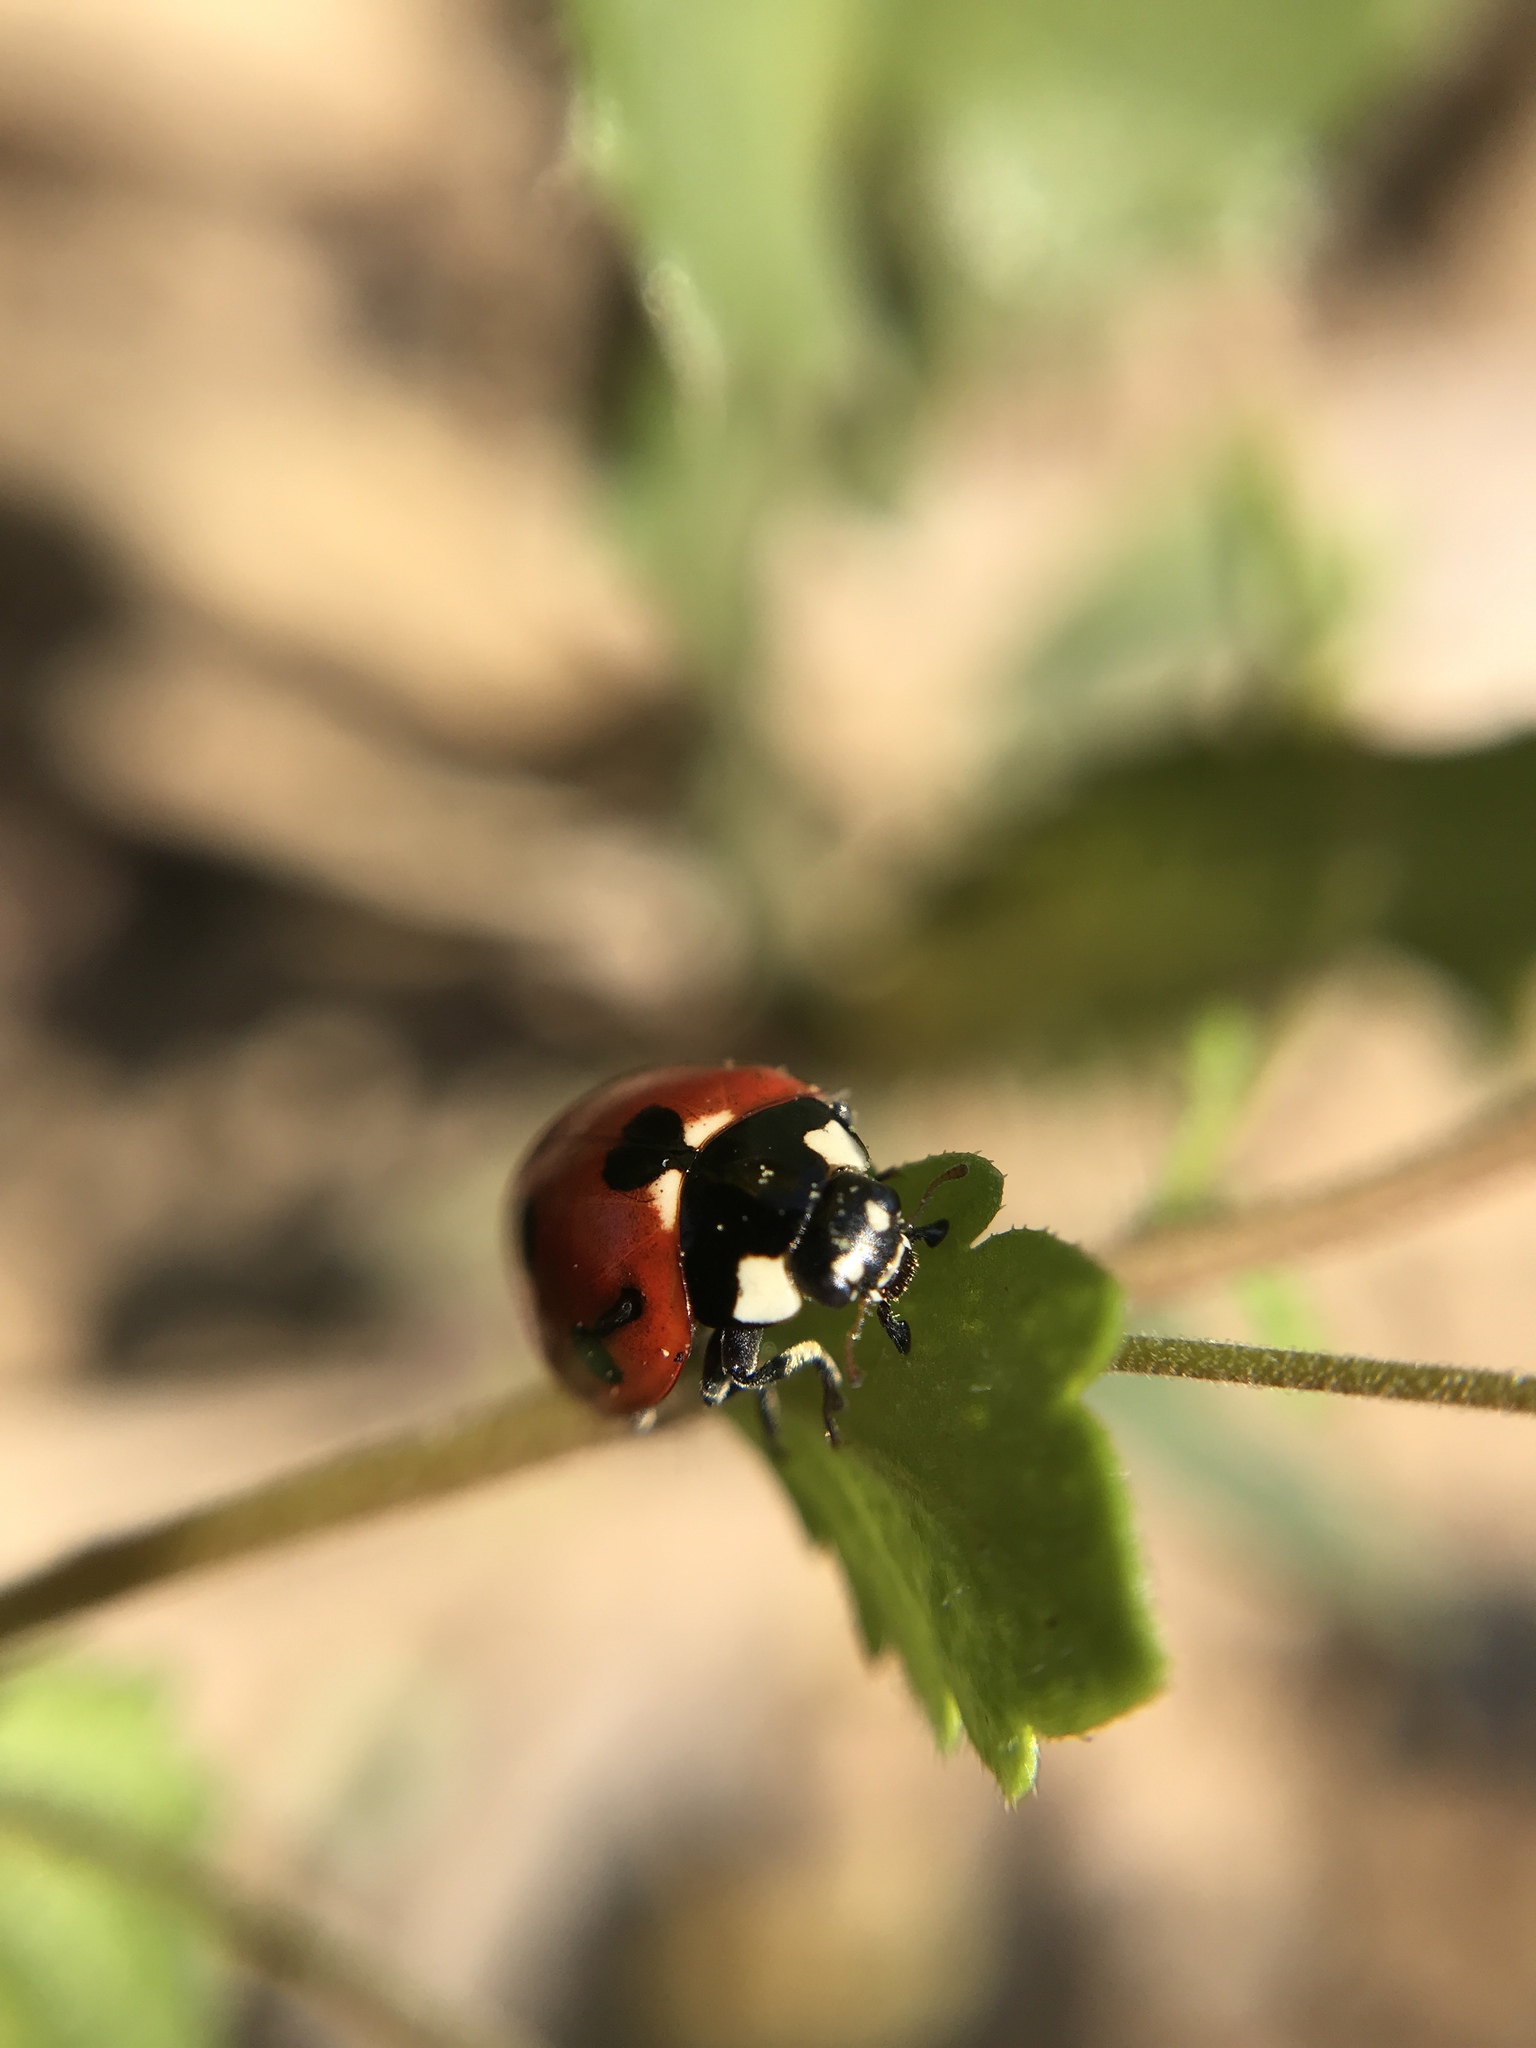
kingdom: Animalia
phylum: Arthropoda
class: Insecta
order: Coleoptera
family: Coccinellidae
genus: Coccinella
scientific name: Coccinella septempunctata
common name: Sevenspotted lady beetle
